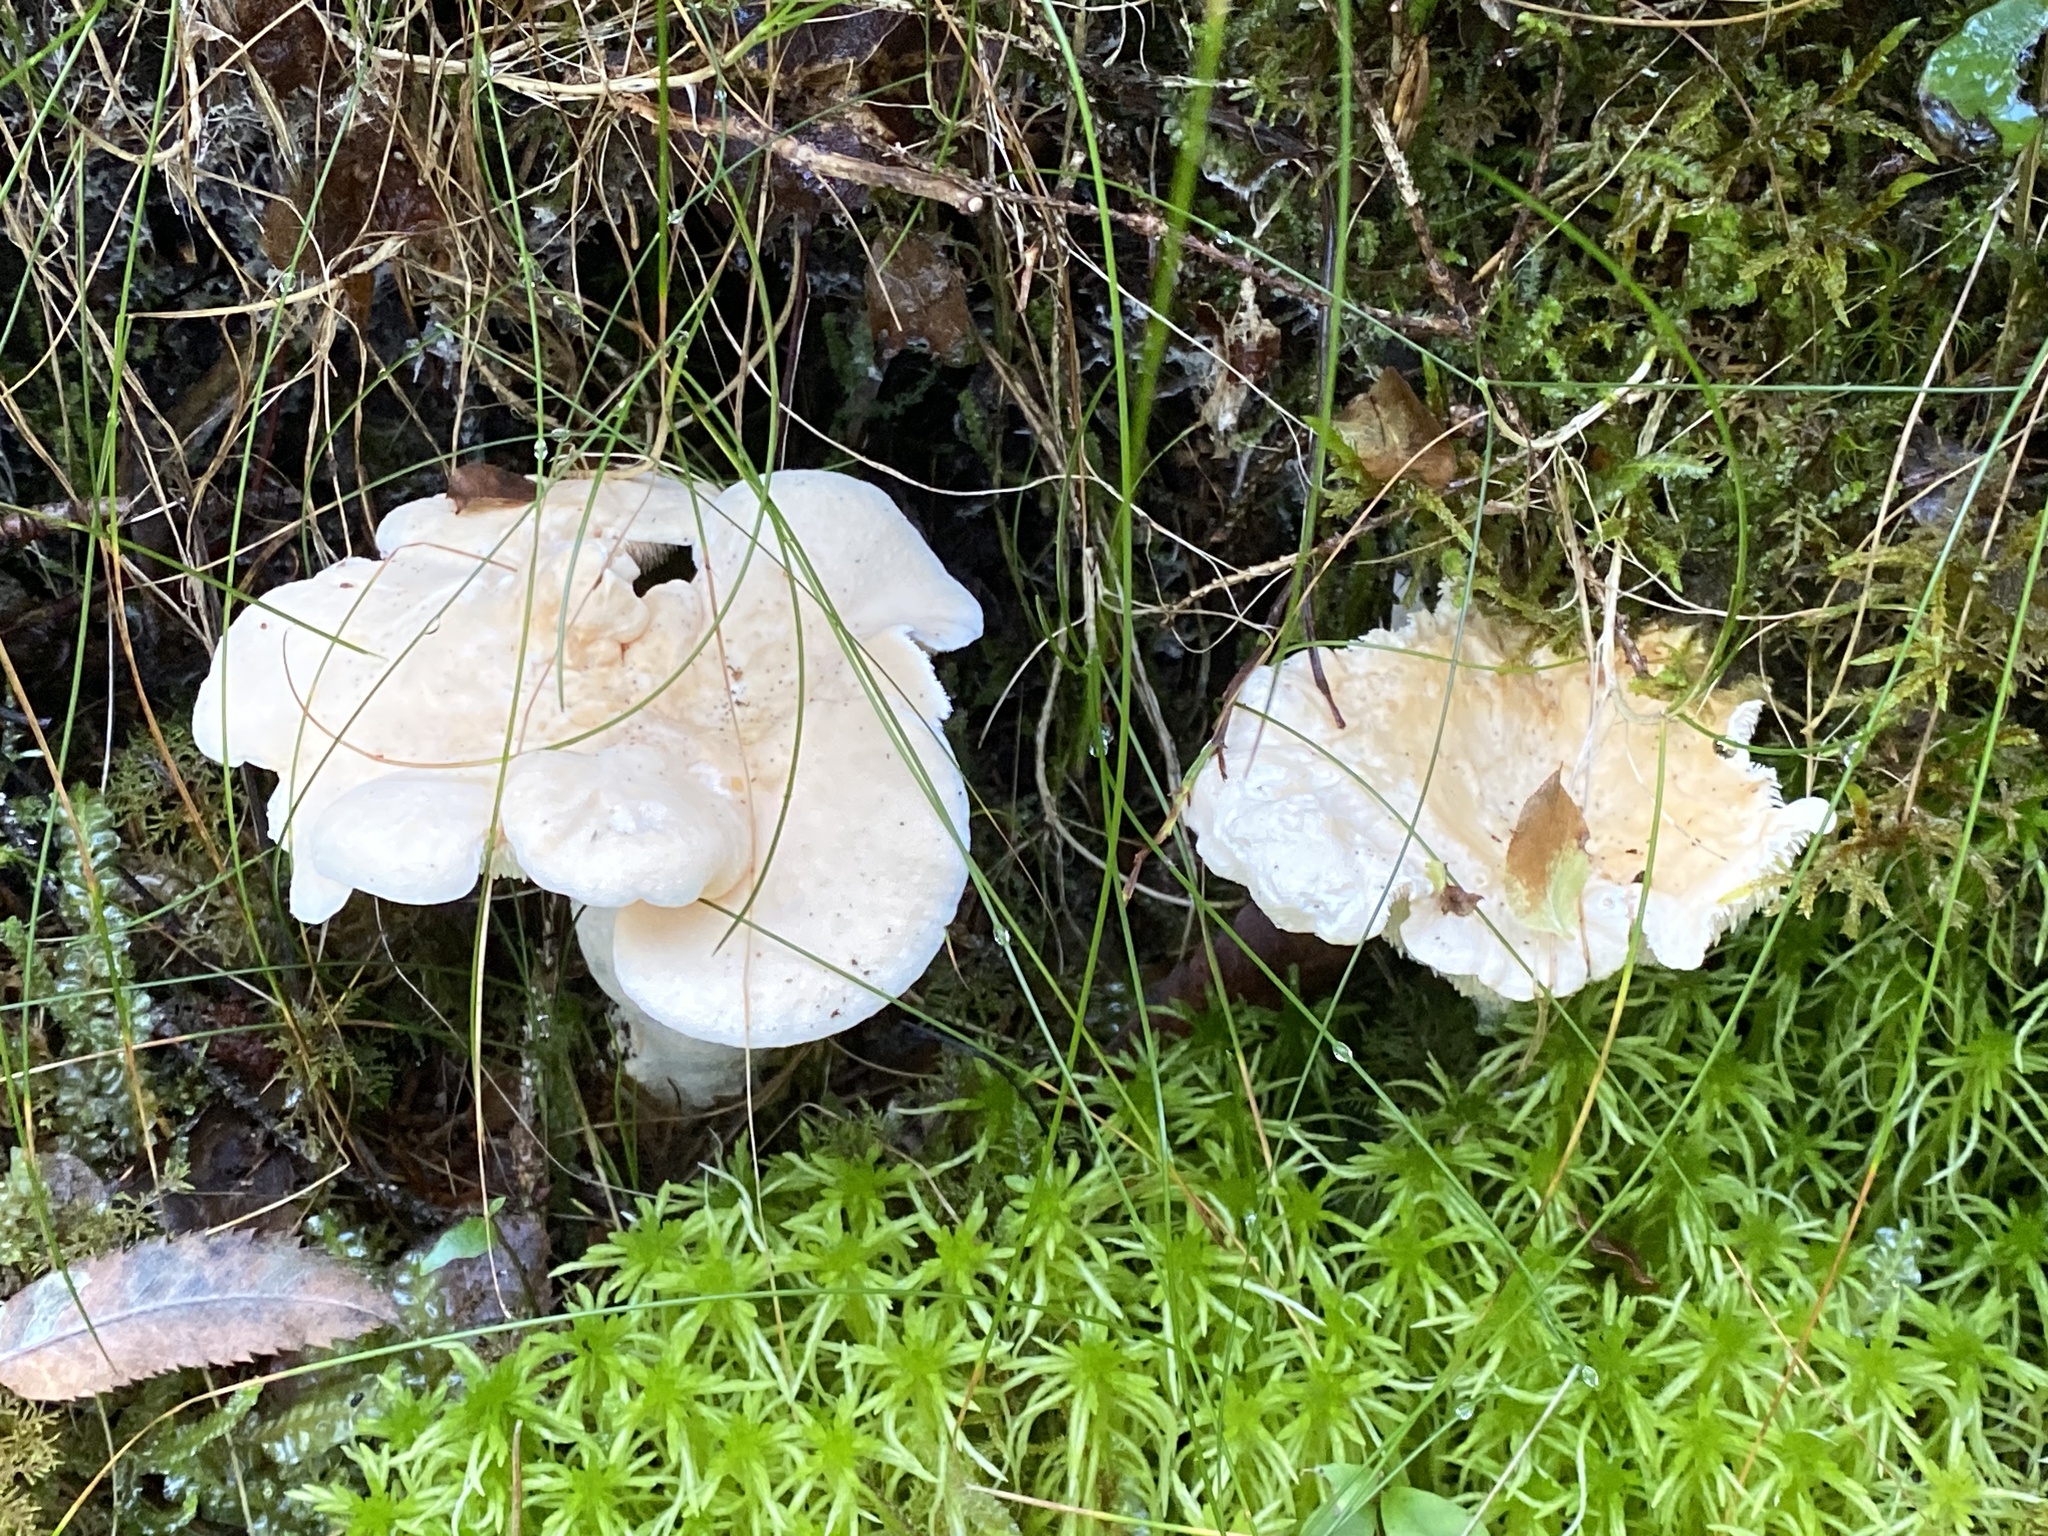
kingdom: Fungi
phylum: Basidiomycota
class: Agaricomycetes
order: Cantharellales
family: Hydnaceae
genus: Hydnum
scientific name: Hydnum repandum
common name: Wood hedgehog
